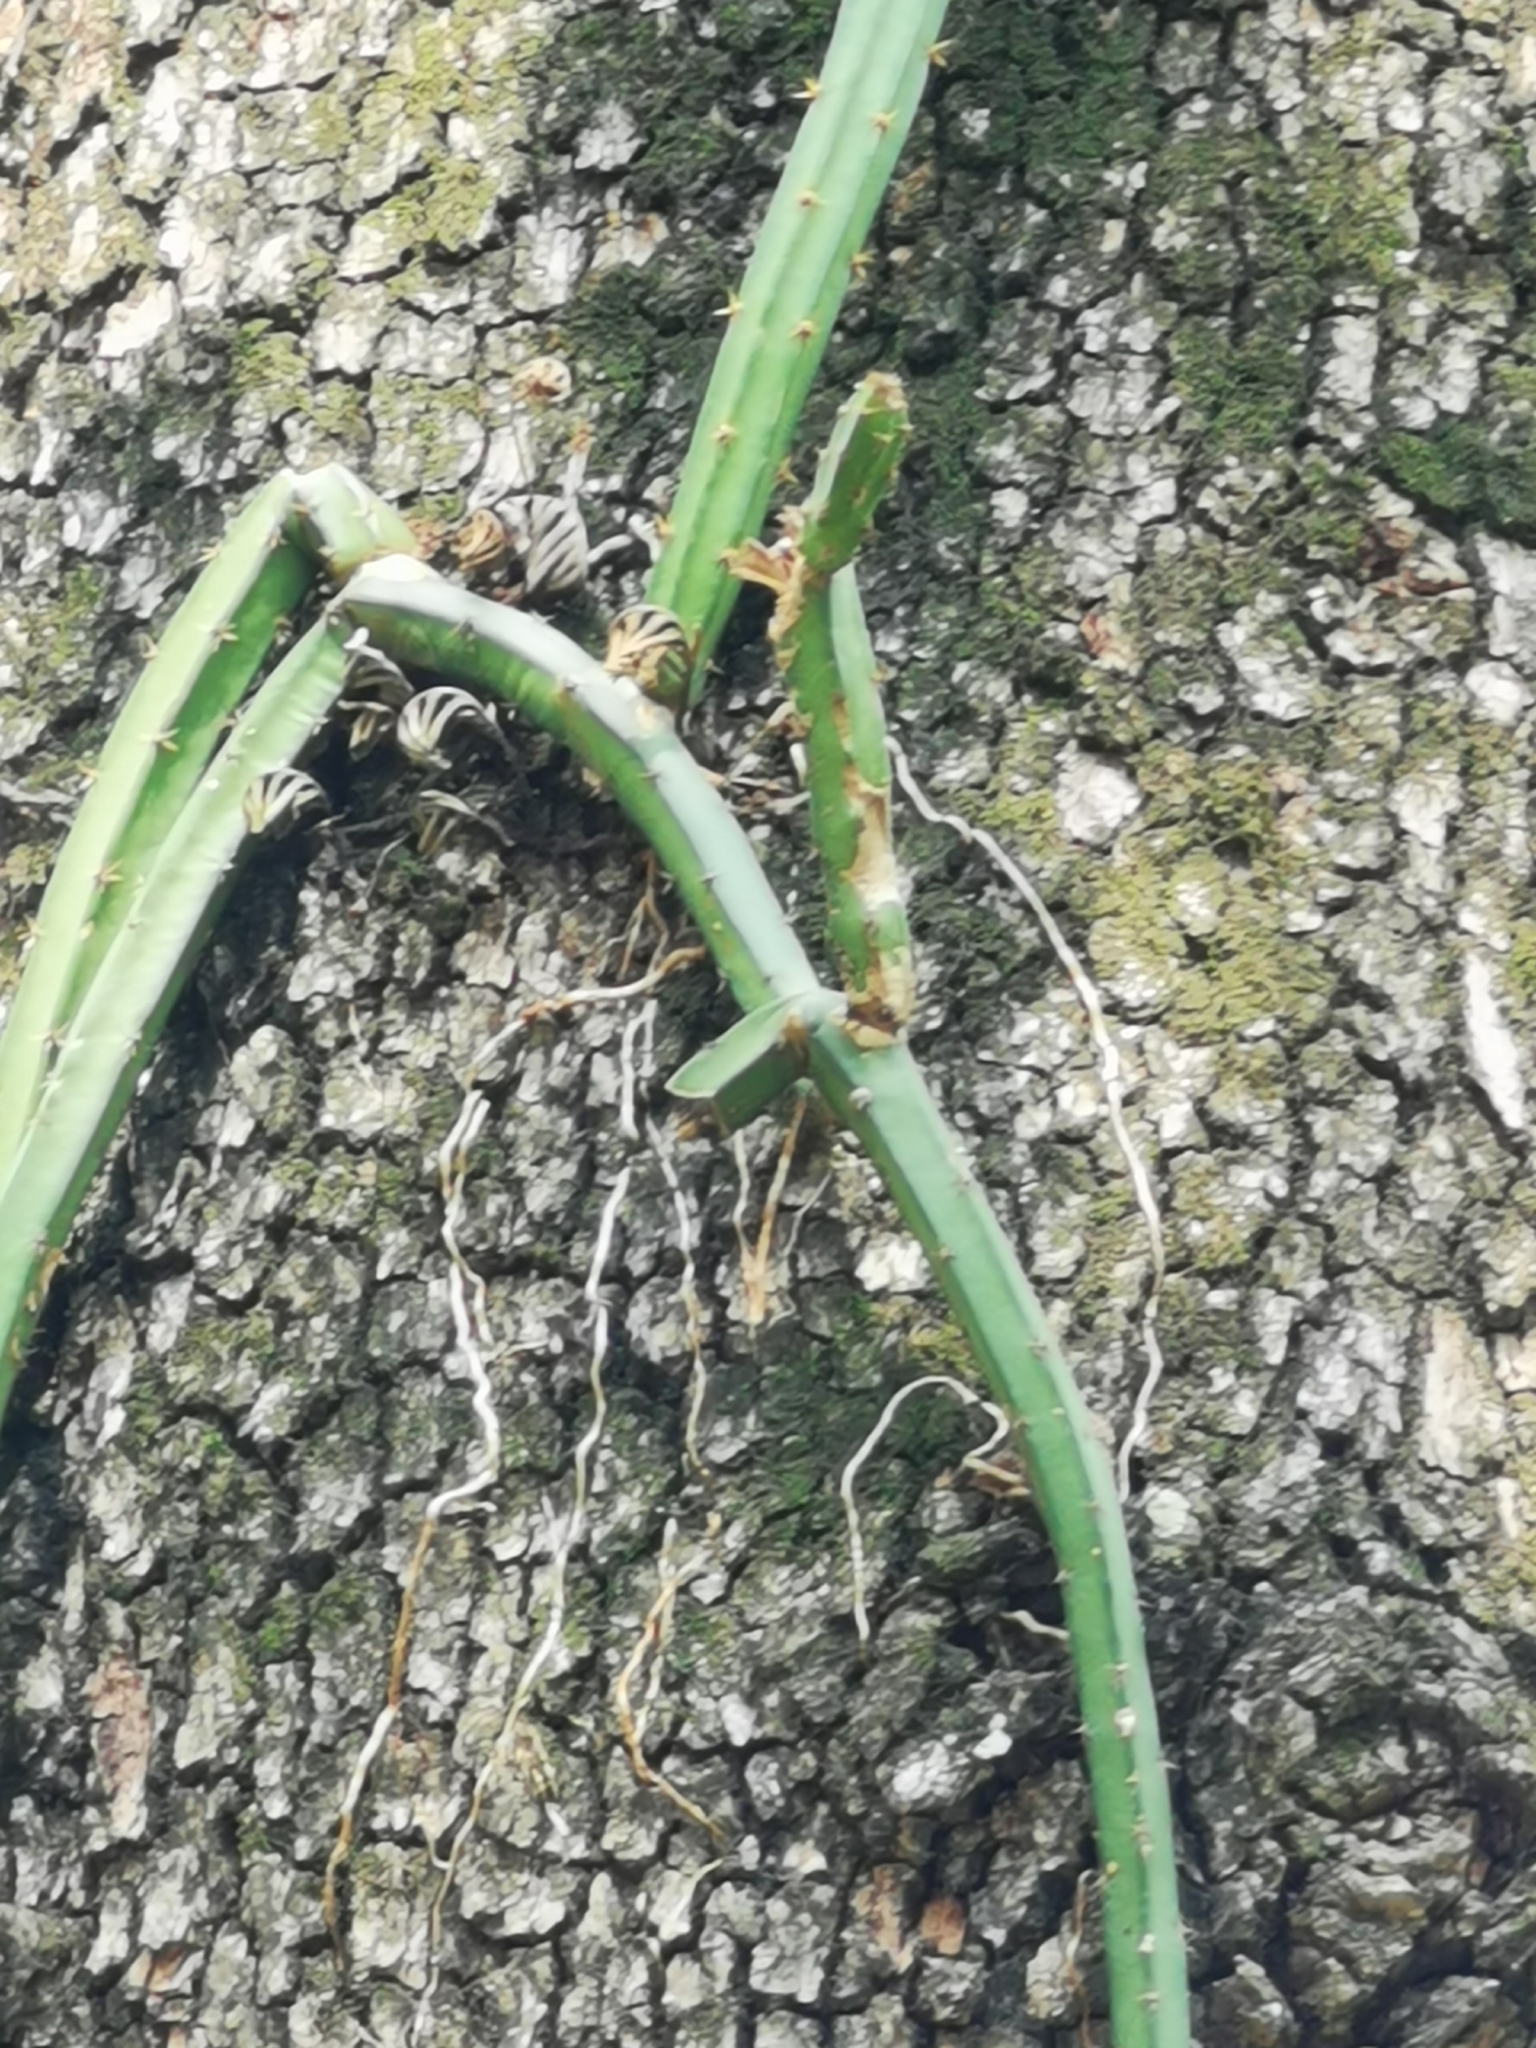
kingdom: Plantae
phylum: Tracheophyta
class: Magnoliopsida
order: Caryophyllales
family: Cactaceae
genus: Selenicereus
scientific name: Selenicereus spinulosus
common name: Nightblooming cereus
